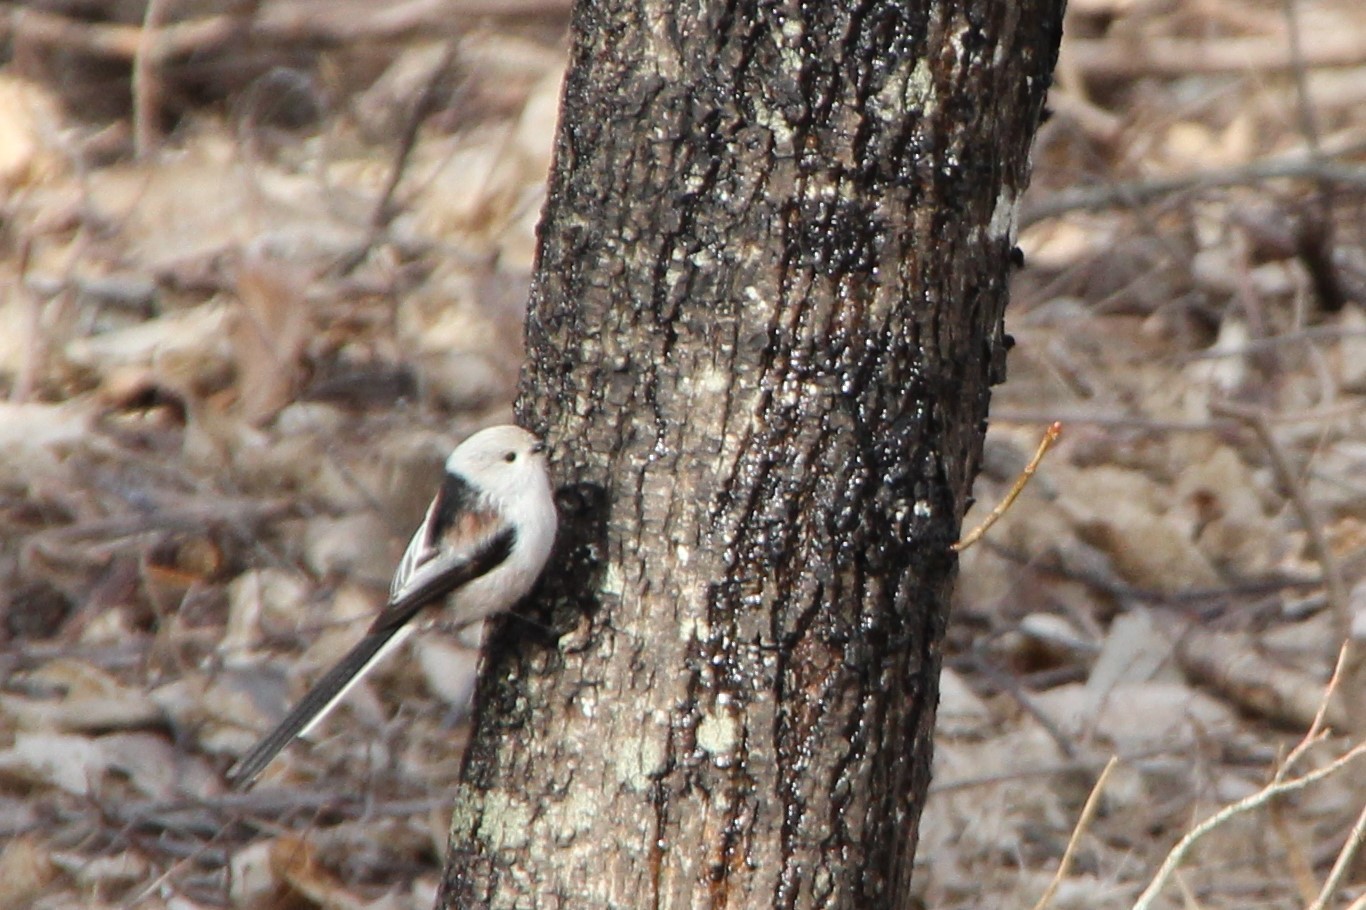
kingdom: Animalia
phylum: Chordata
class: Aves
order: Passeriformes
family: Aegithalidae
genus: Aegithalos
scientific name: Aegithalos caudatus
